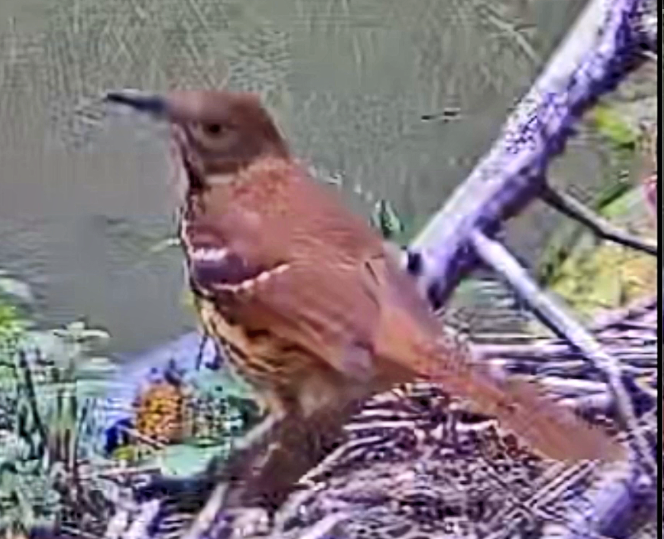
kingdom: Animalia
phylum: Chordata
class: Aves
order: Passeriformes
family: Mimidae
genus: Toxostoma
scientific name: Toxostoma rufum
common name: Brown thrasher
